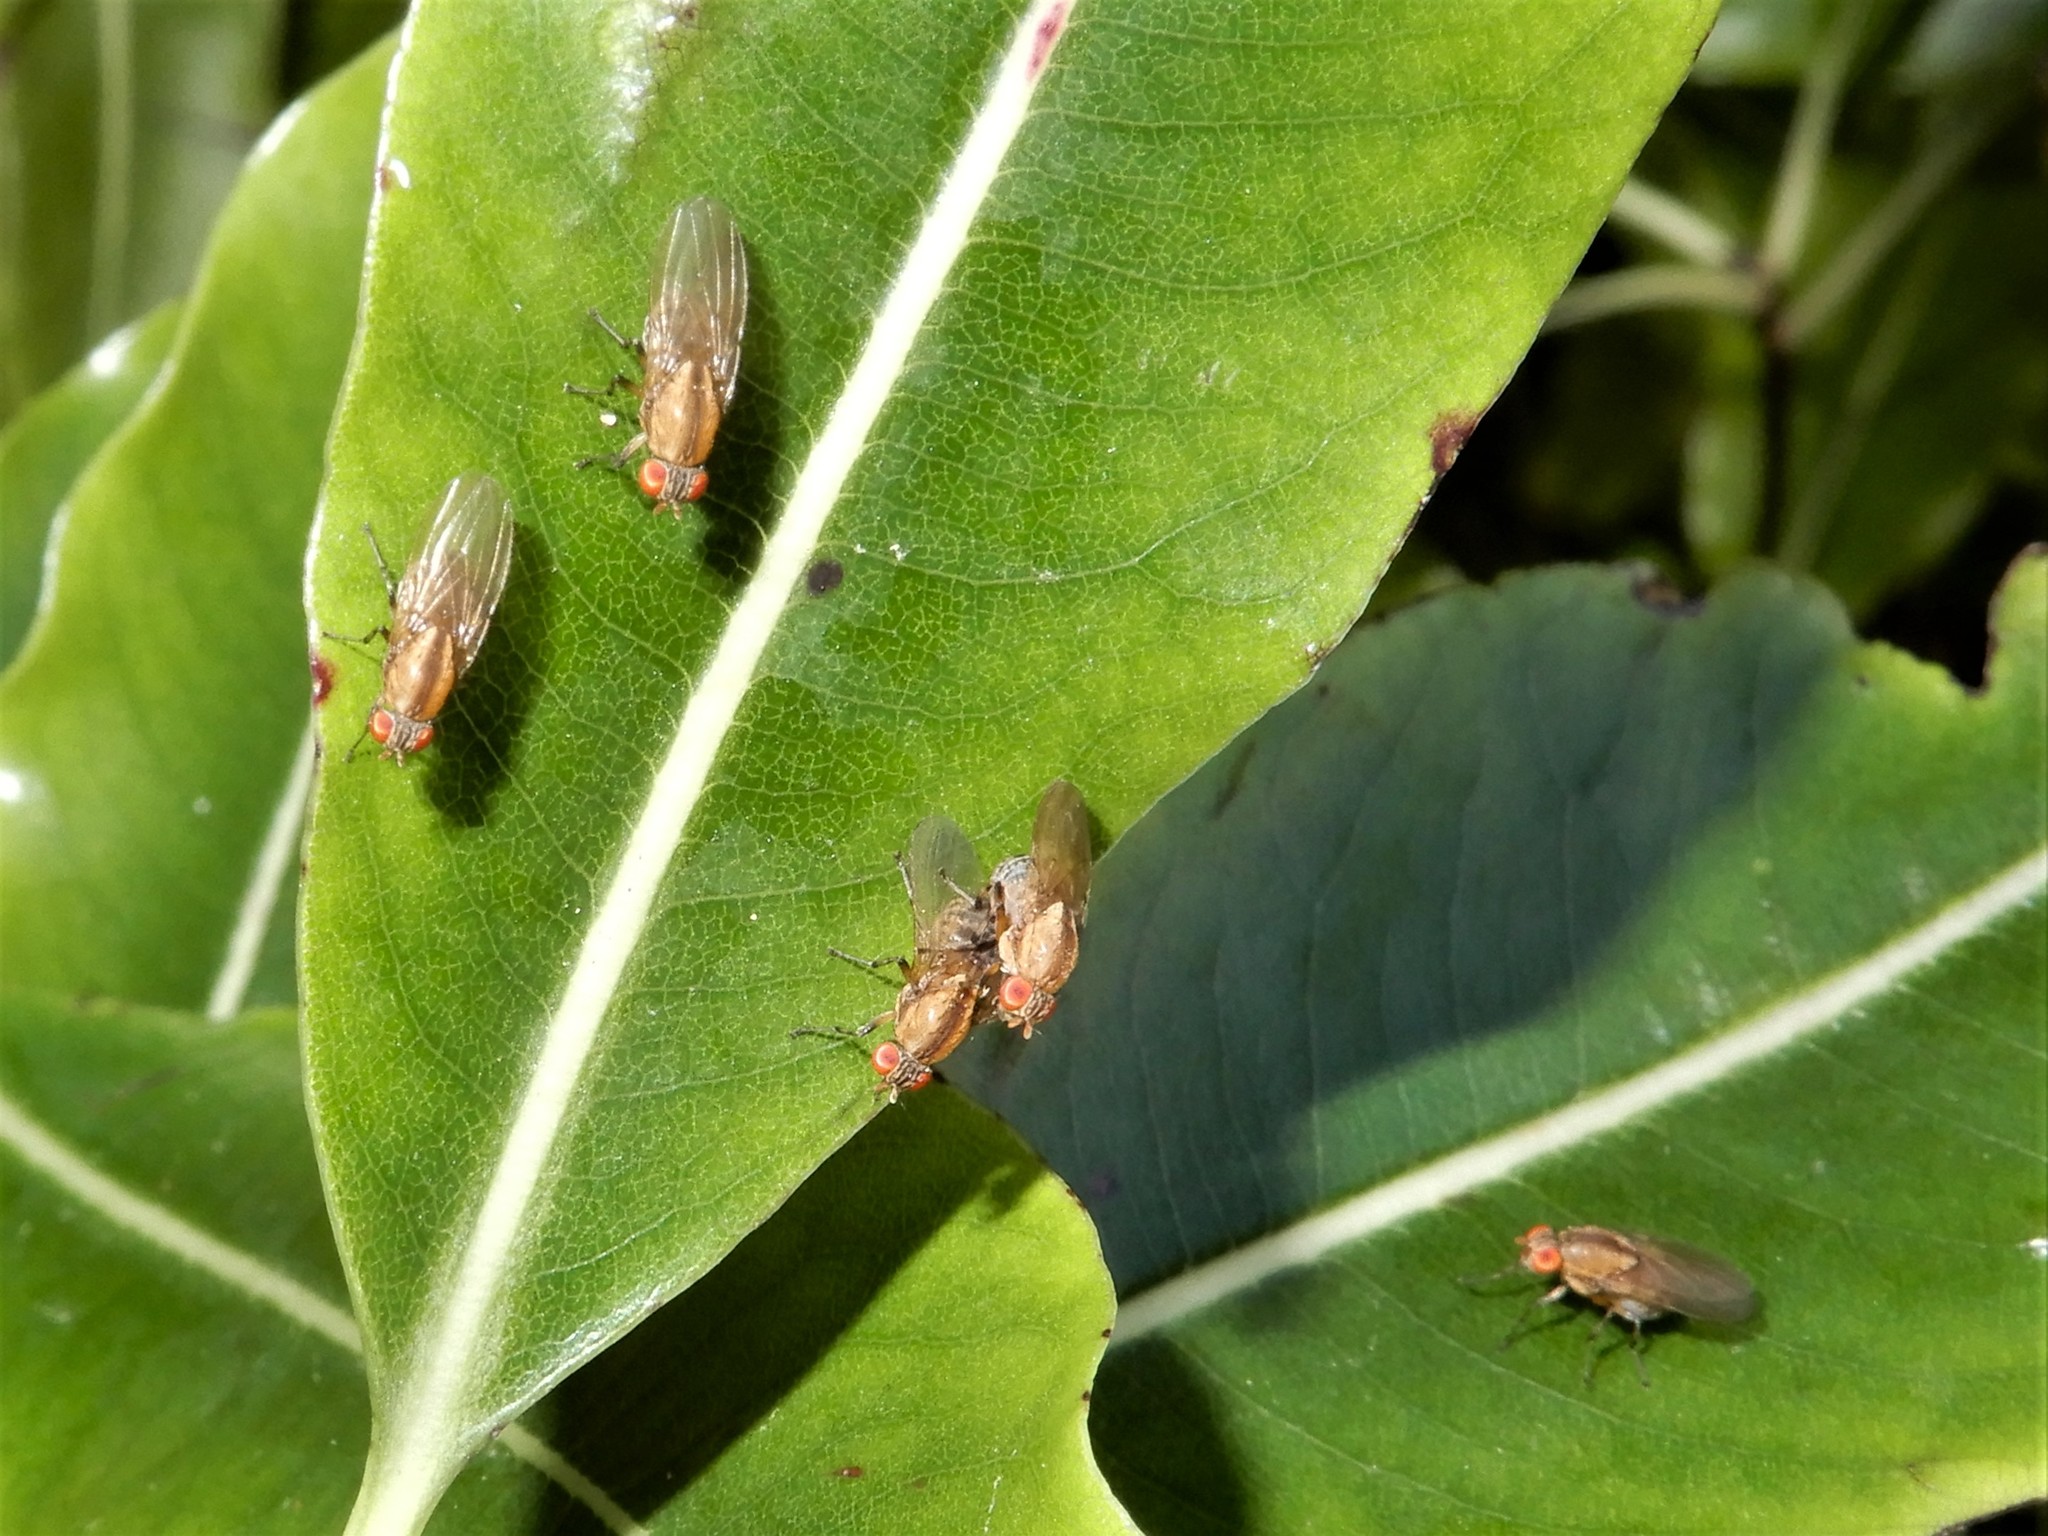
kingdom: Animalia
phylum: Arthropoda
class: Insecta
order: Diptera
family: Lauxaniidae
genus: Sapromyza
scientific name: Sapromyza neozelandica
